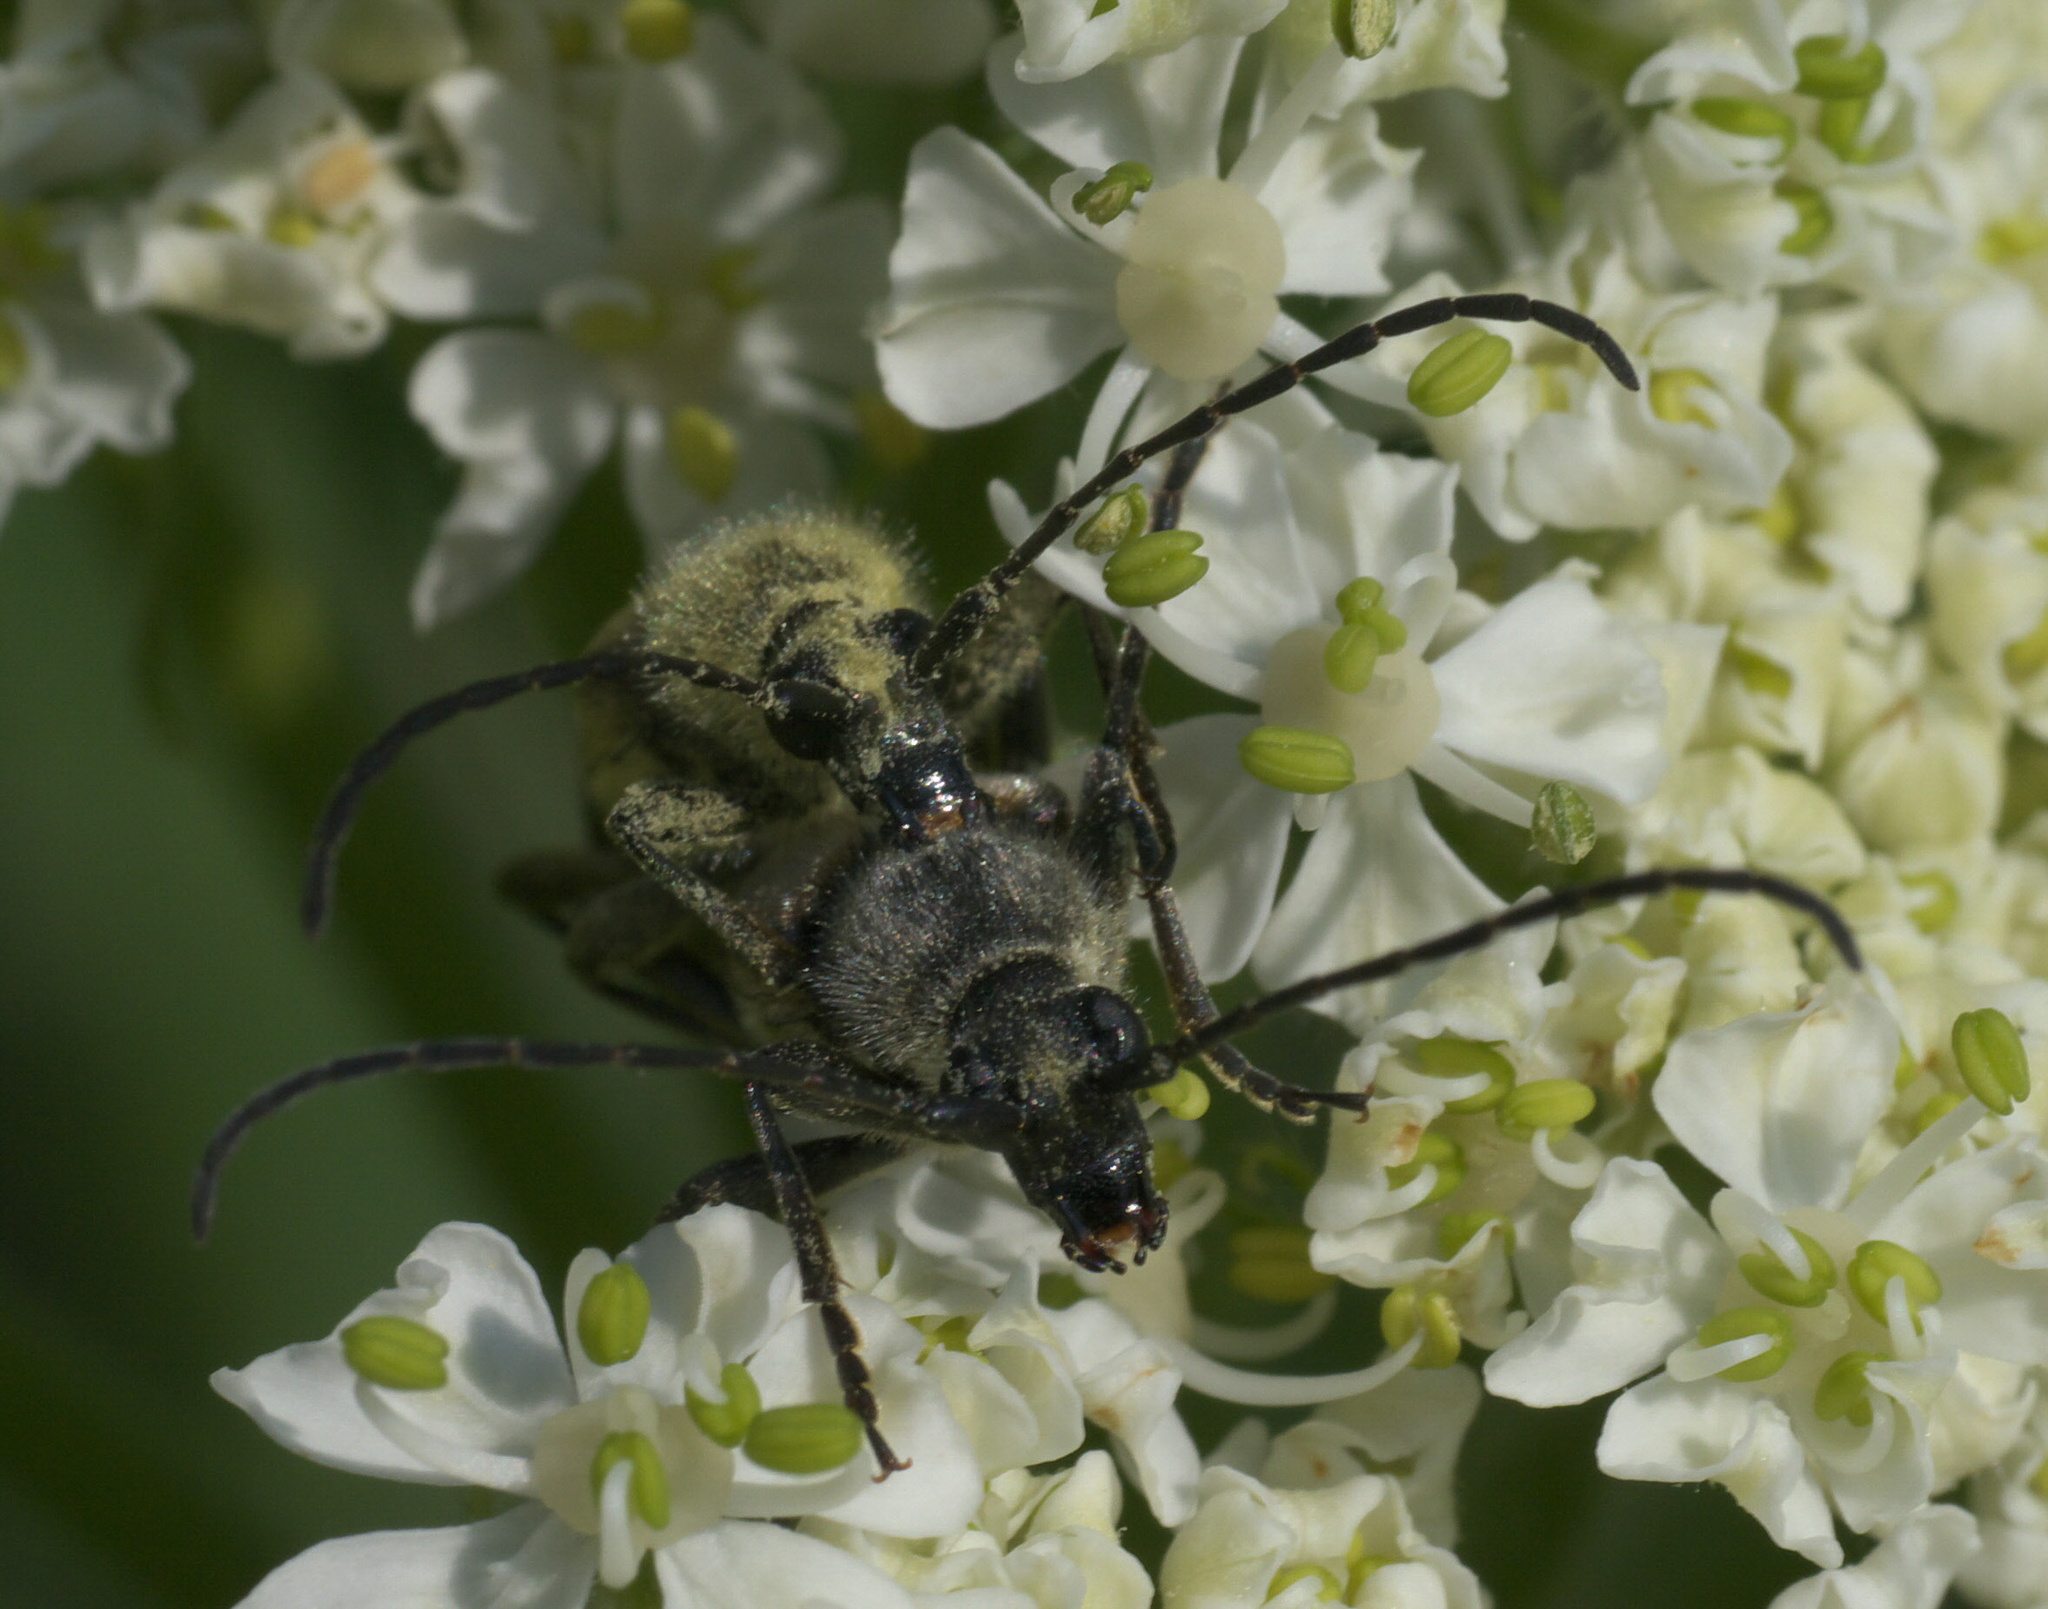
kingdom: Animalia
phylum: Arthropoda
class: Insecta
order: Coleoptera
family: Cerambycidae
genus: Cosmosalia
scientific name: Cosmosalia chrysocoma
